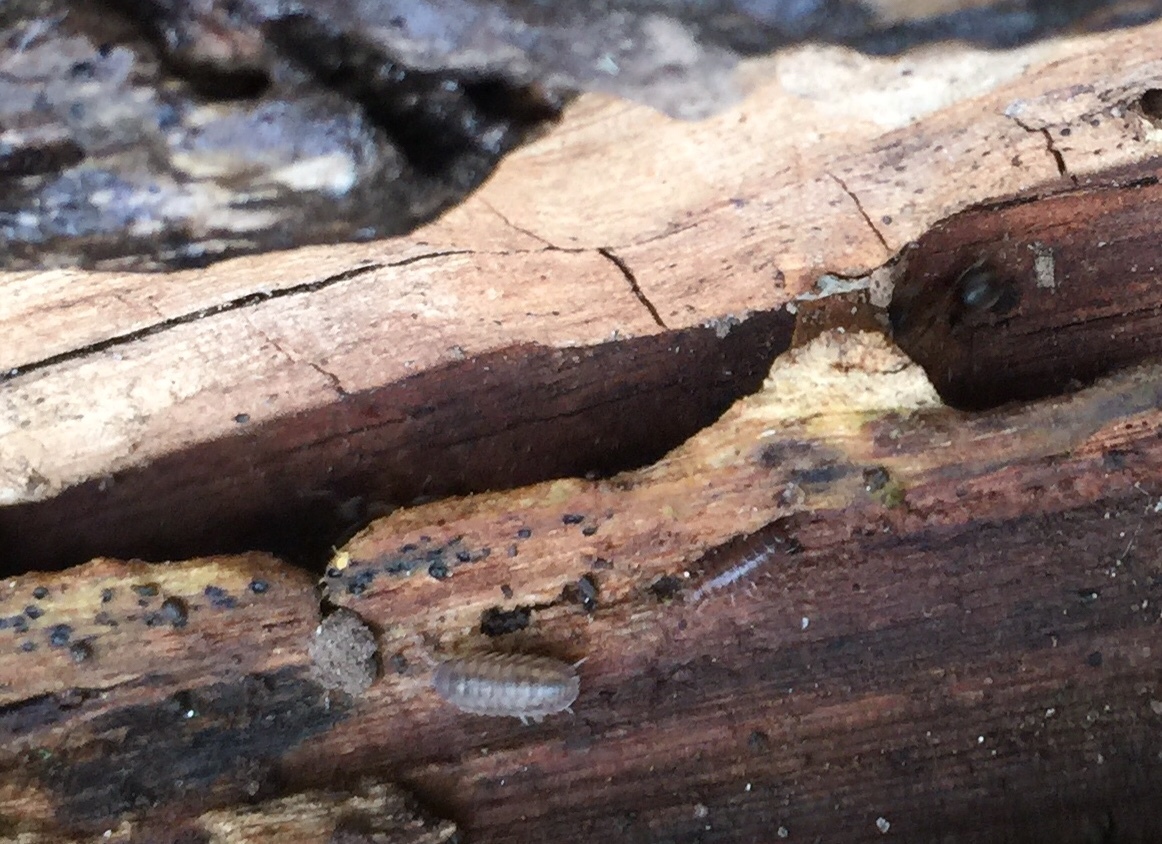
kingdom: Animalia
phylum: Arthropoda
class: Malacostraca
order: Isopoda
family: Armadillidiidae
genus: Armadillidium
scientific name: Armadillidium nasatum
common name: Isopod
